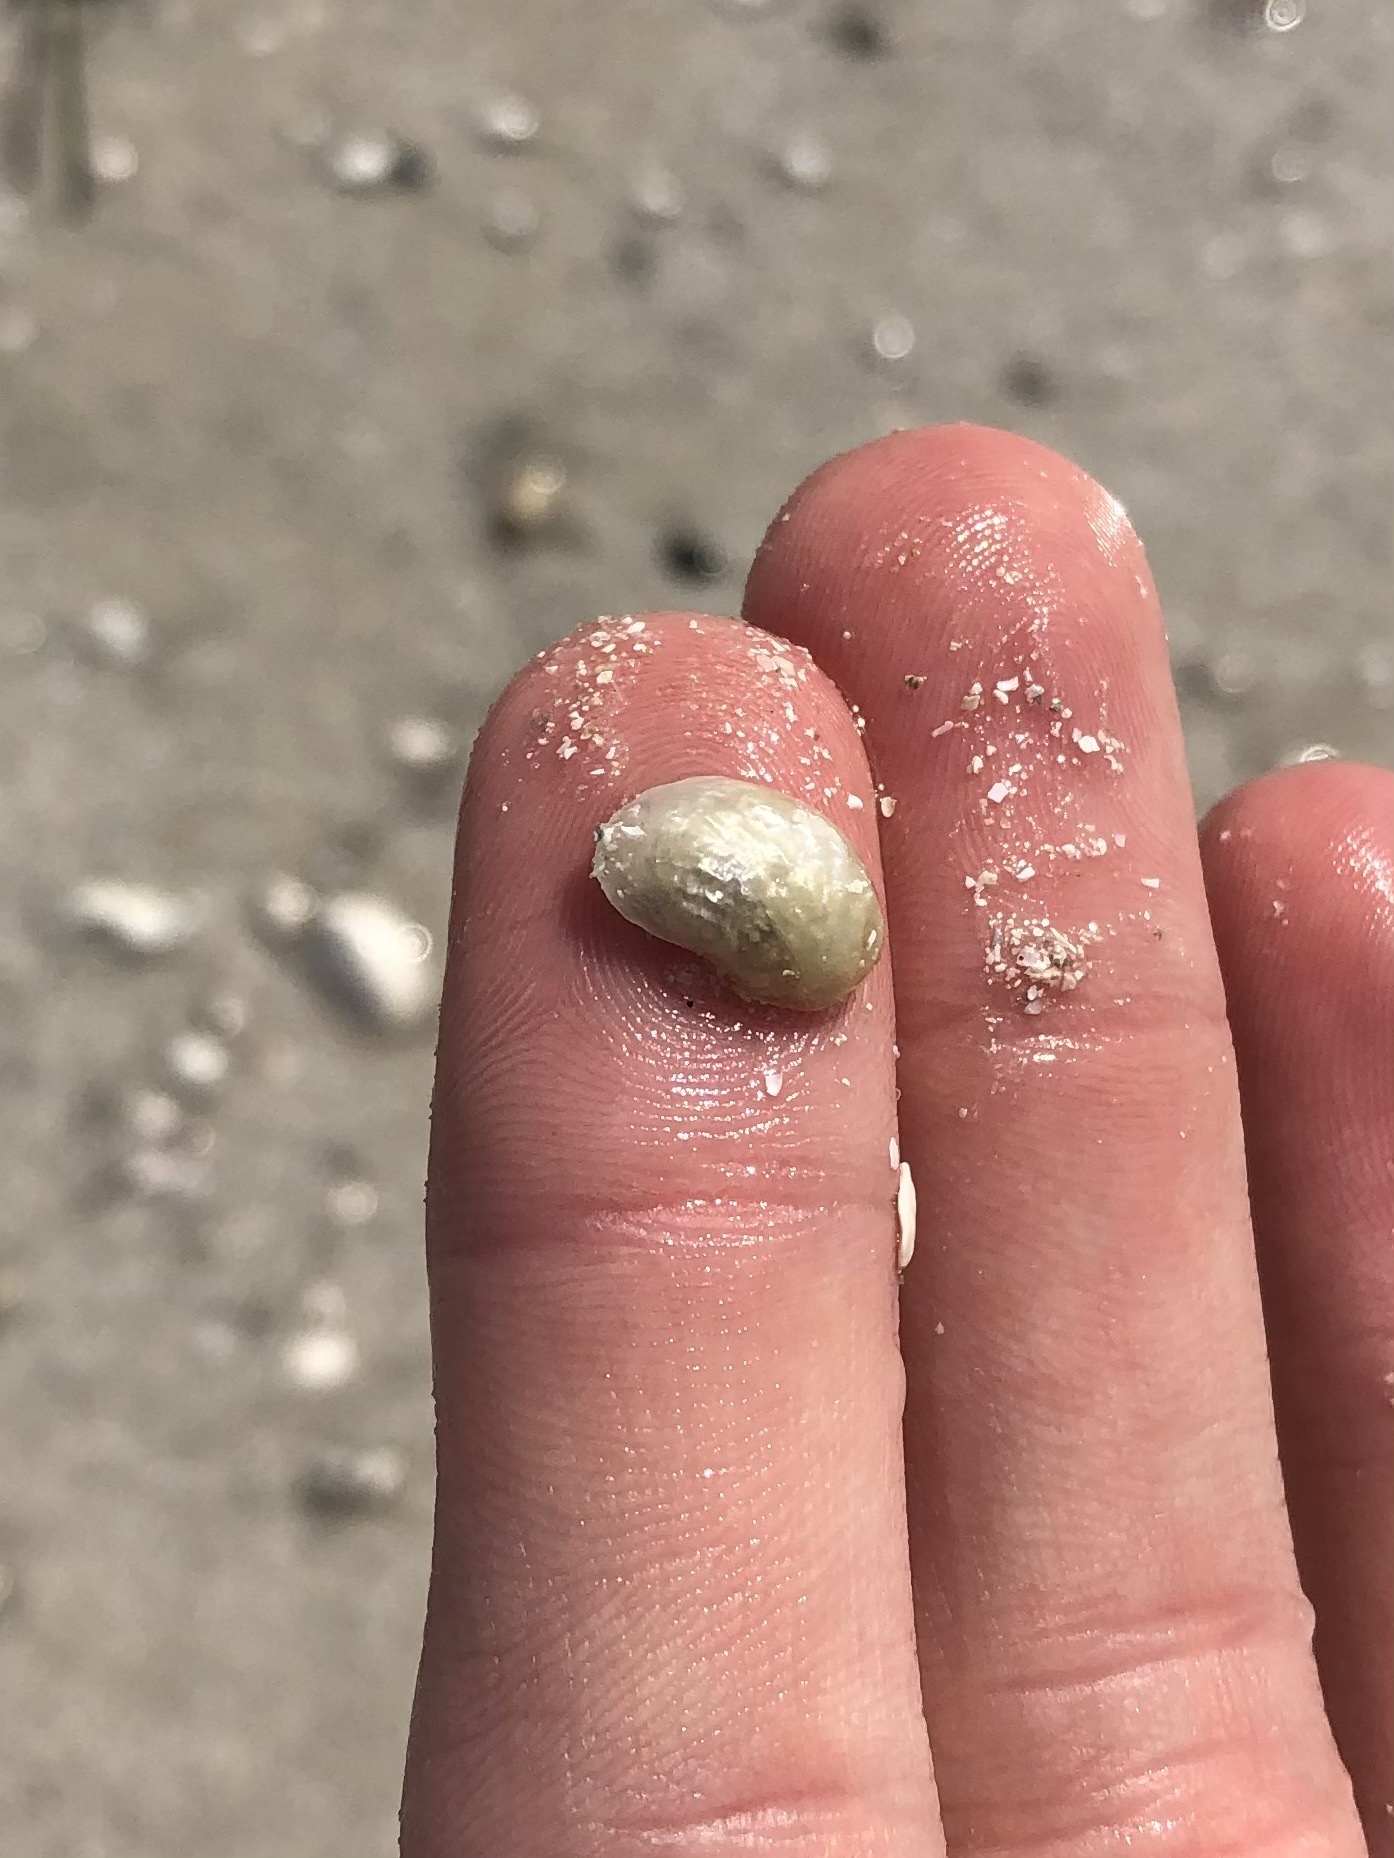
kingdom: Animalia
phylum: Mollusca
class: Bivalvia
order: Pectinida
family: Anomiidae
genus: Anomia
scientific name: Anomia simplex
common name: Common jingle shell
